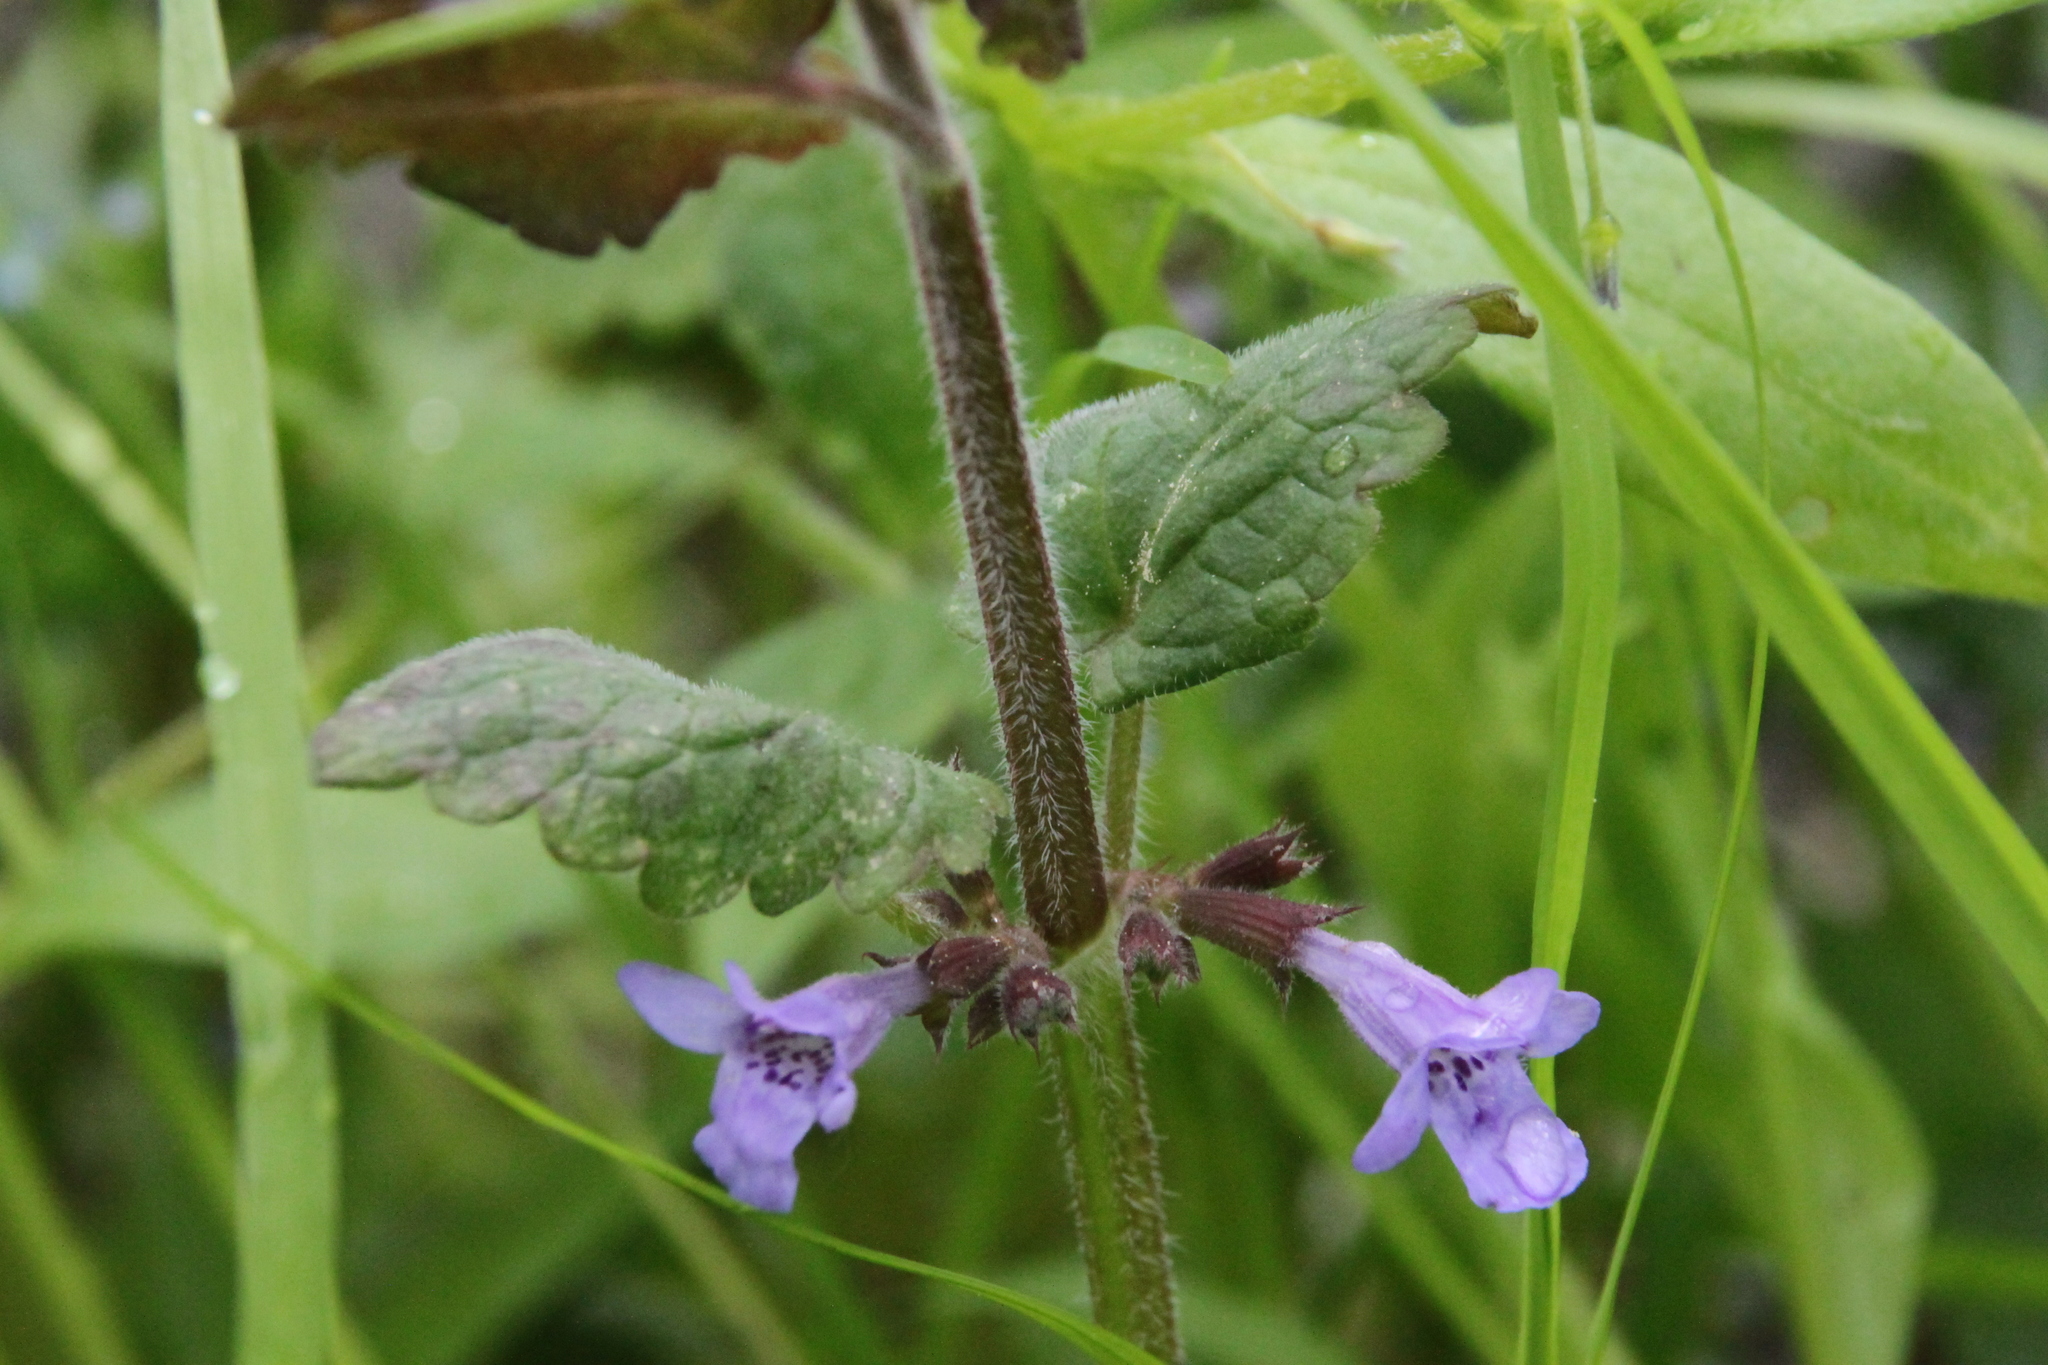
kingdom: Plantae
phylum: Tracheophyta
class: Magnoliopsida
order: Lamiales
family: Lamiaceae
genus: Glechoma
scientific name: Glechoma hederacea
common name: Ground ivy
